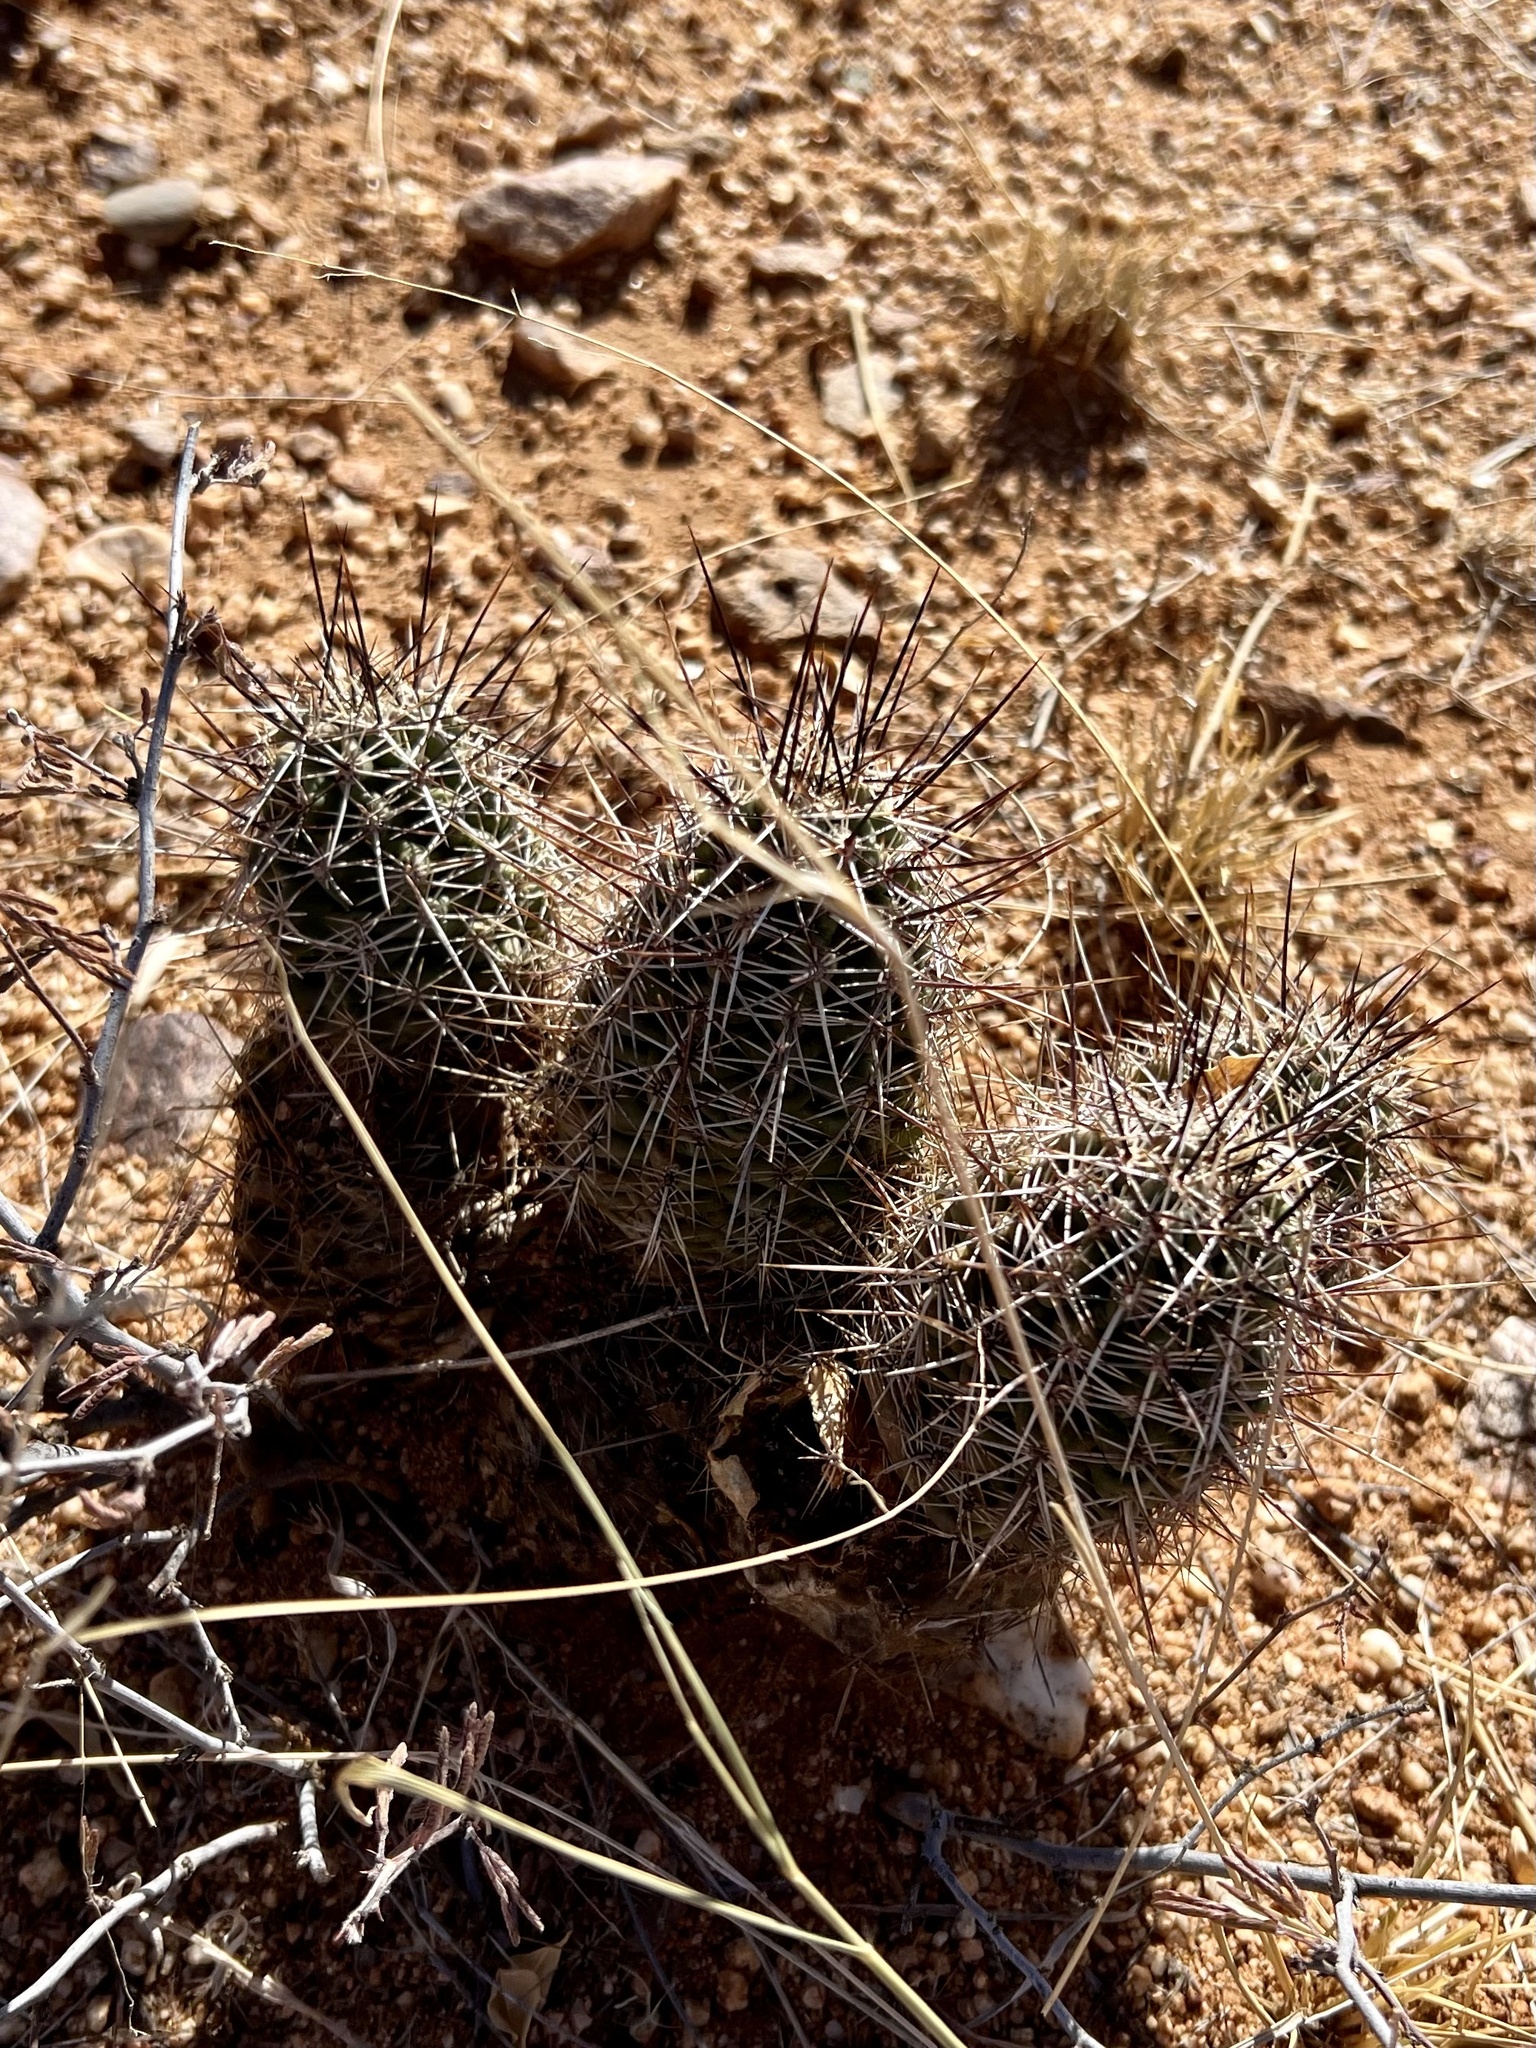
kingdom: Plantae
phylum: Tracheophyta
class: Magnoliopsida
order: Caryophyllales
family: Cactaceae
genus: Echinocereus
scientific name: Echinocereus fasciculatus
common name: Bundle hedgehog
